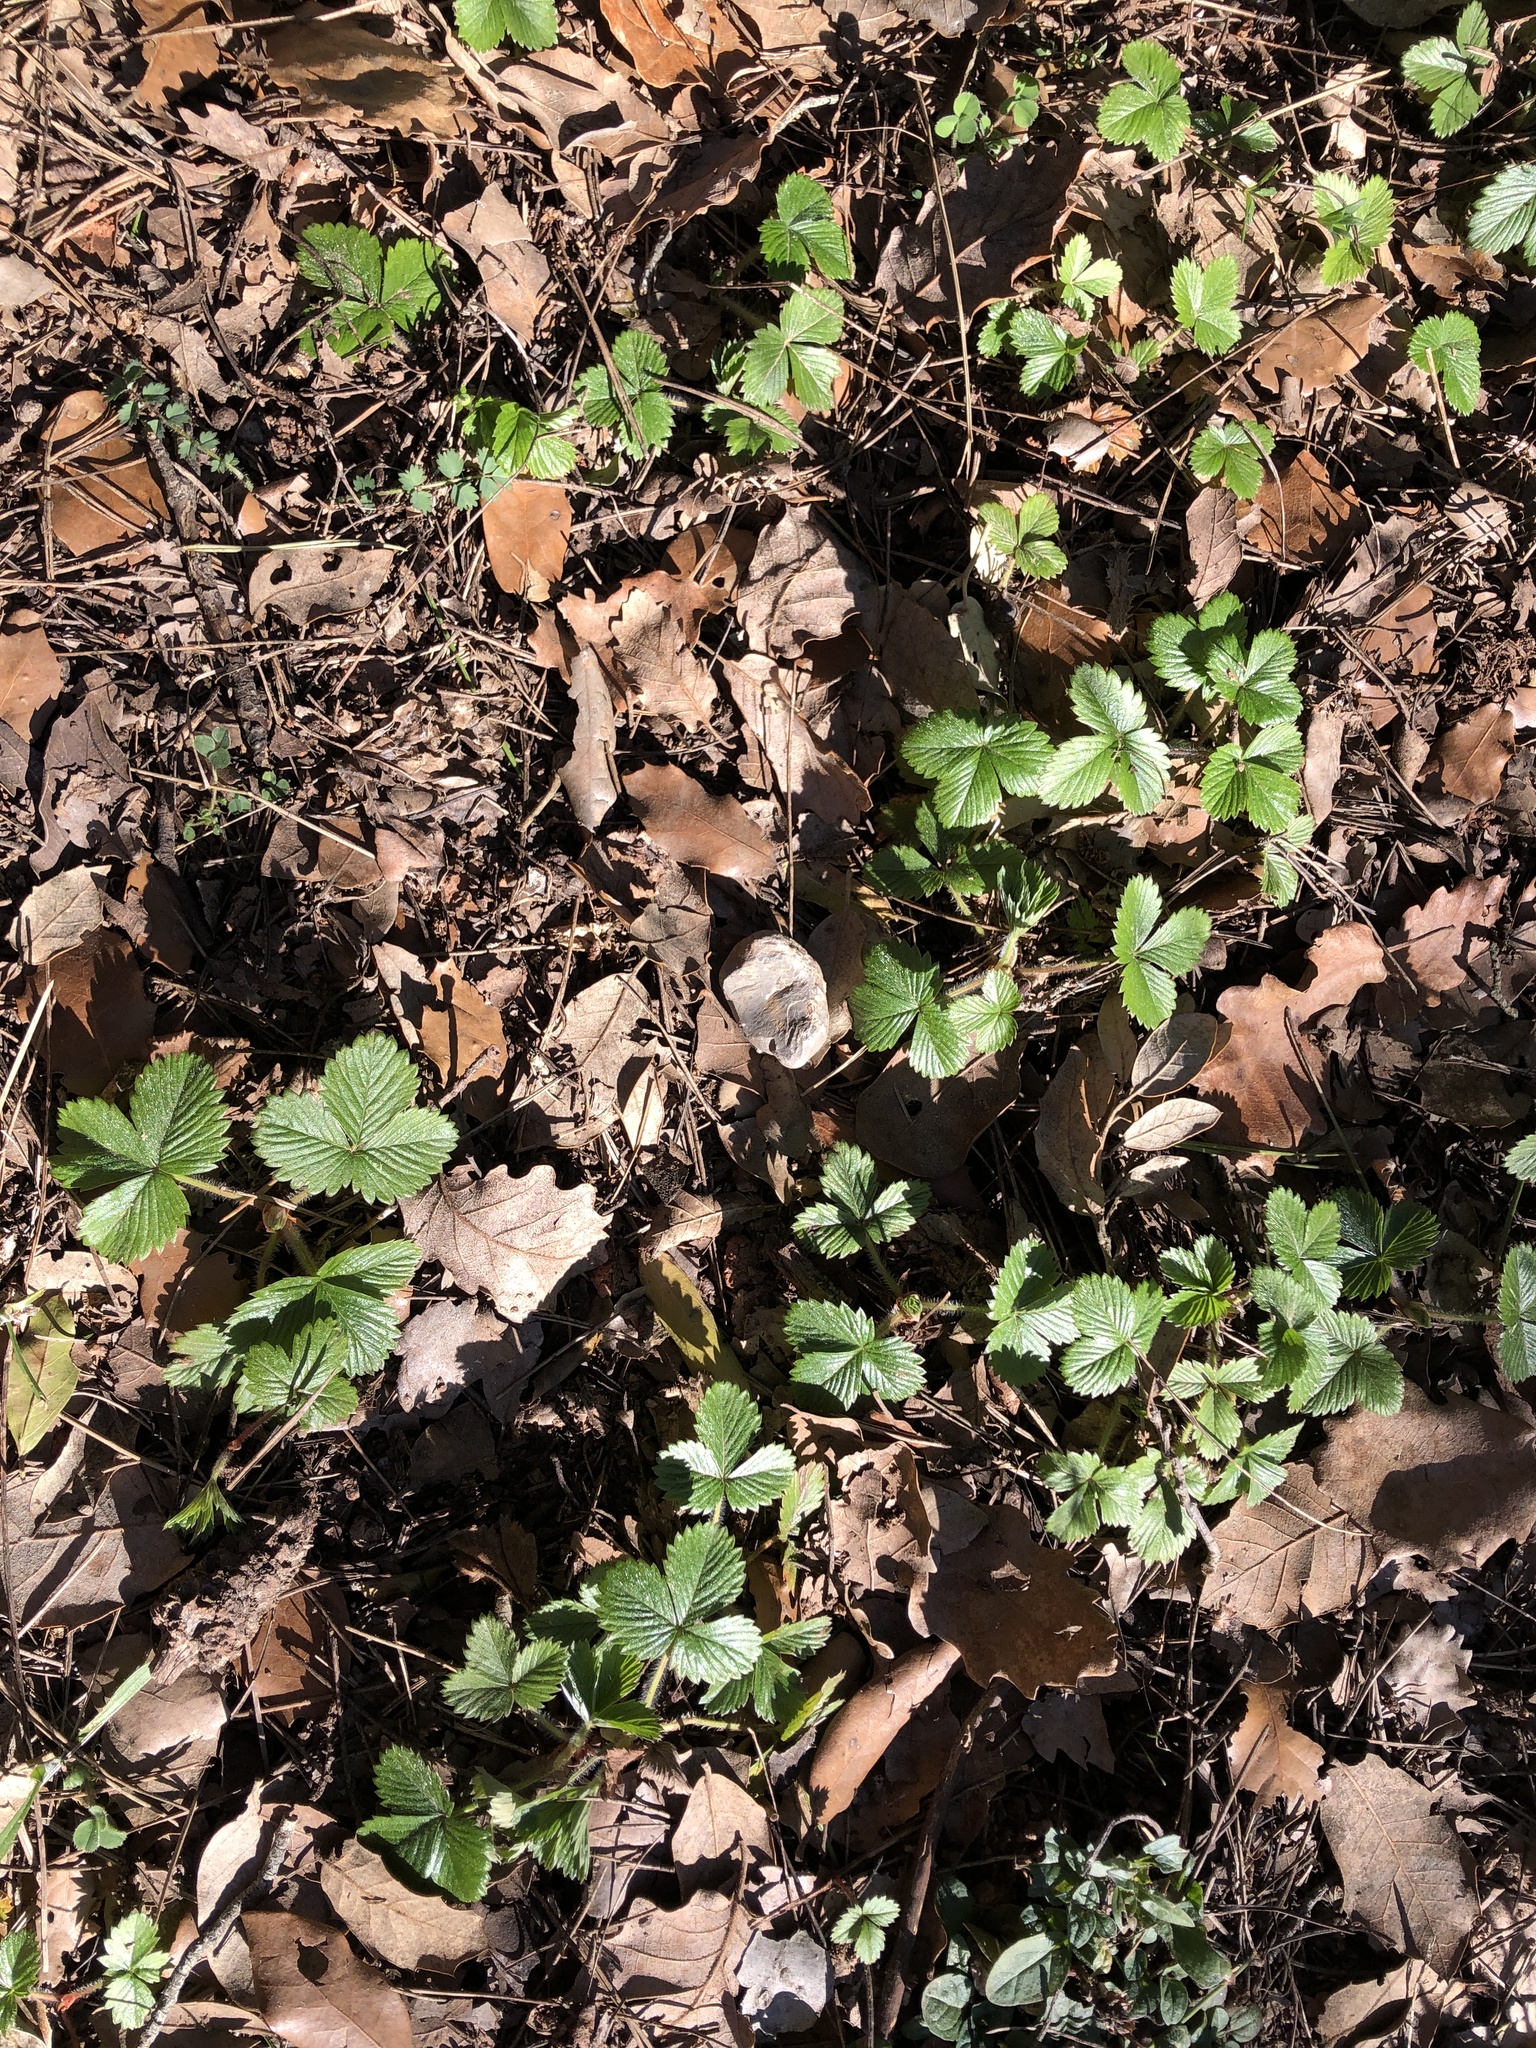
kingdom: Plantae
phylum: Tracheophyta
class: Magnoliopsida
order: Rosales
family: Rosaceae
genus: Fragaria
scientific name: Fragaria vesca
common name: Wild strawberry
